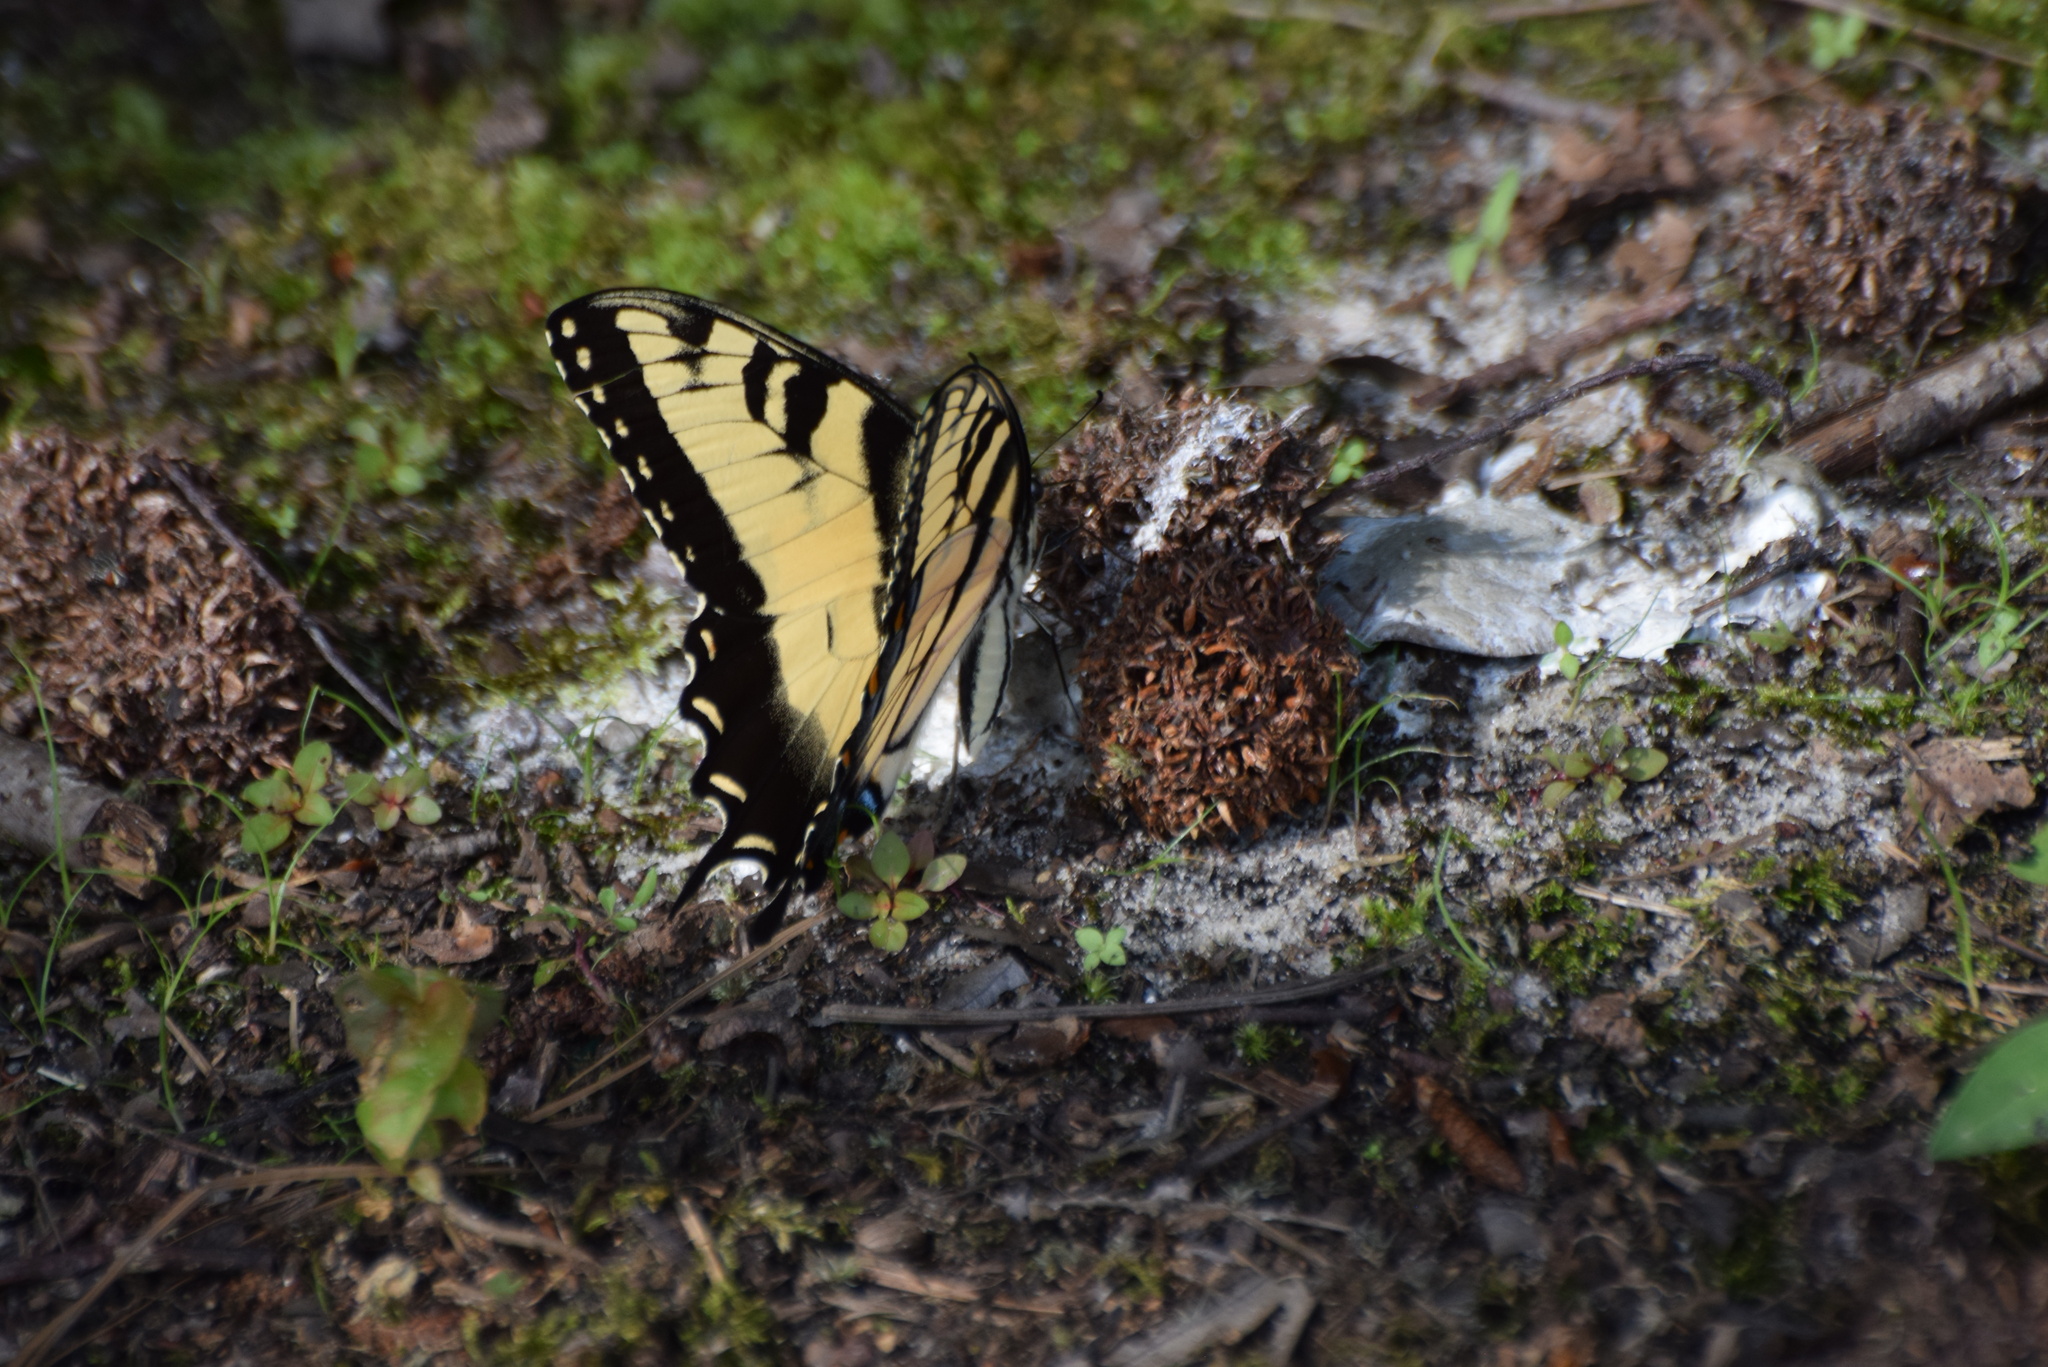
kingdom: Animalia
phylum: Arthropoda
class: Insecta
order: Lepidoptera
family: Papilionidae
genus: Papilio
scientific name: Papilio glaucus
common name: Tiger swallowtail
